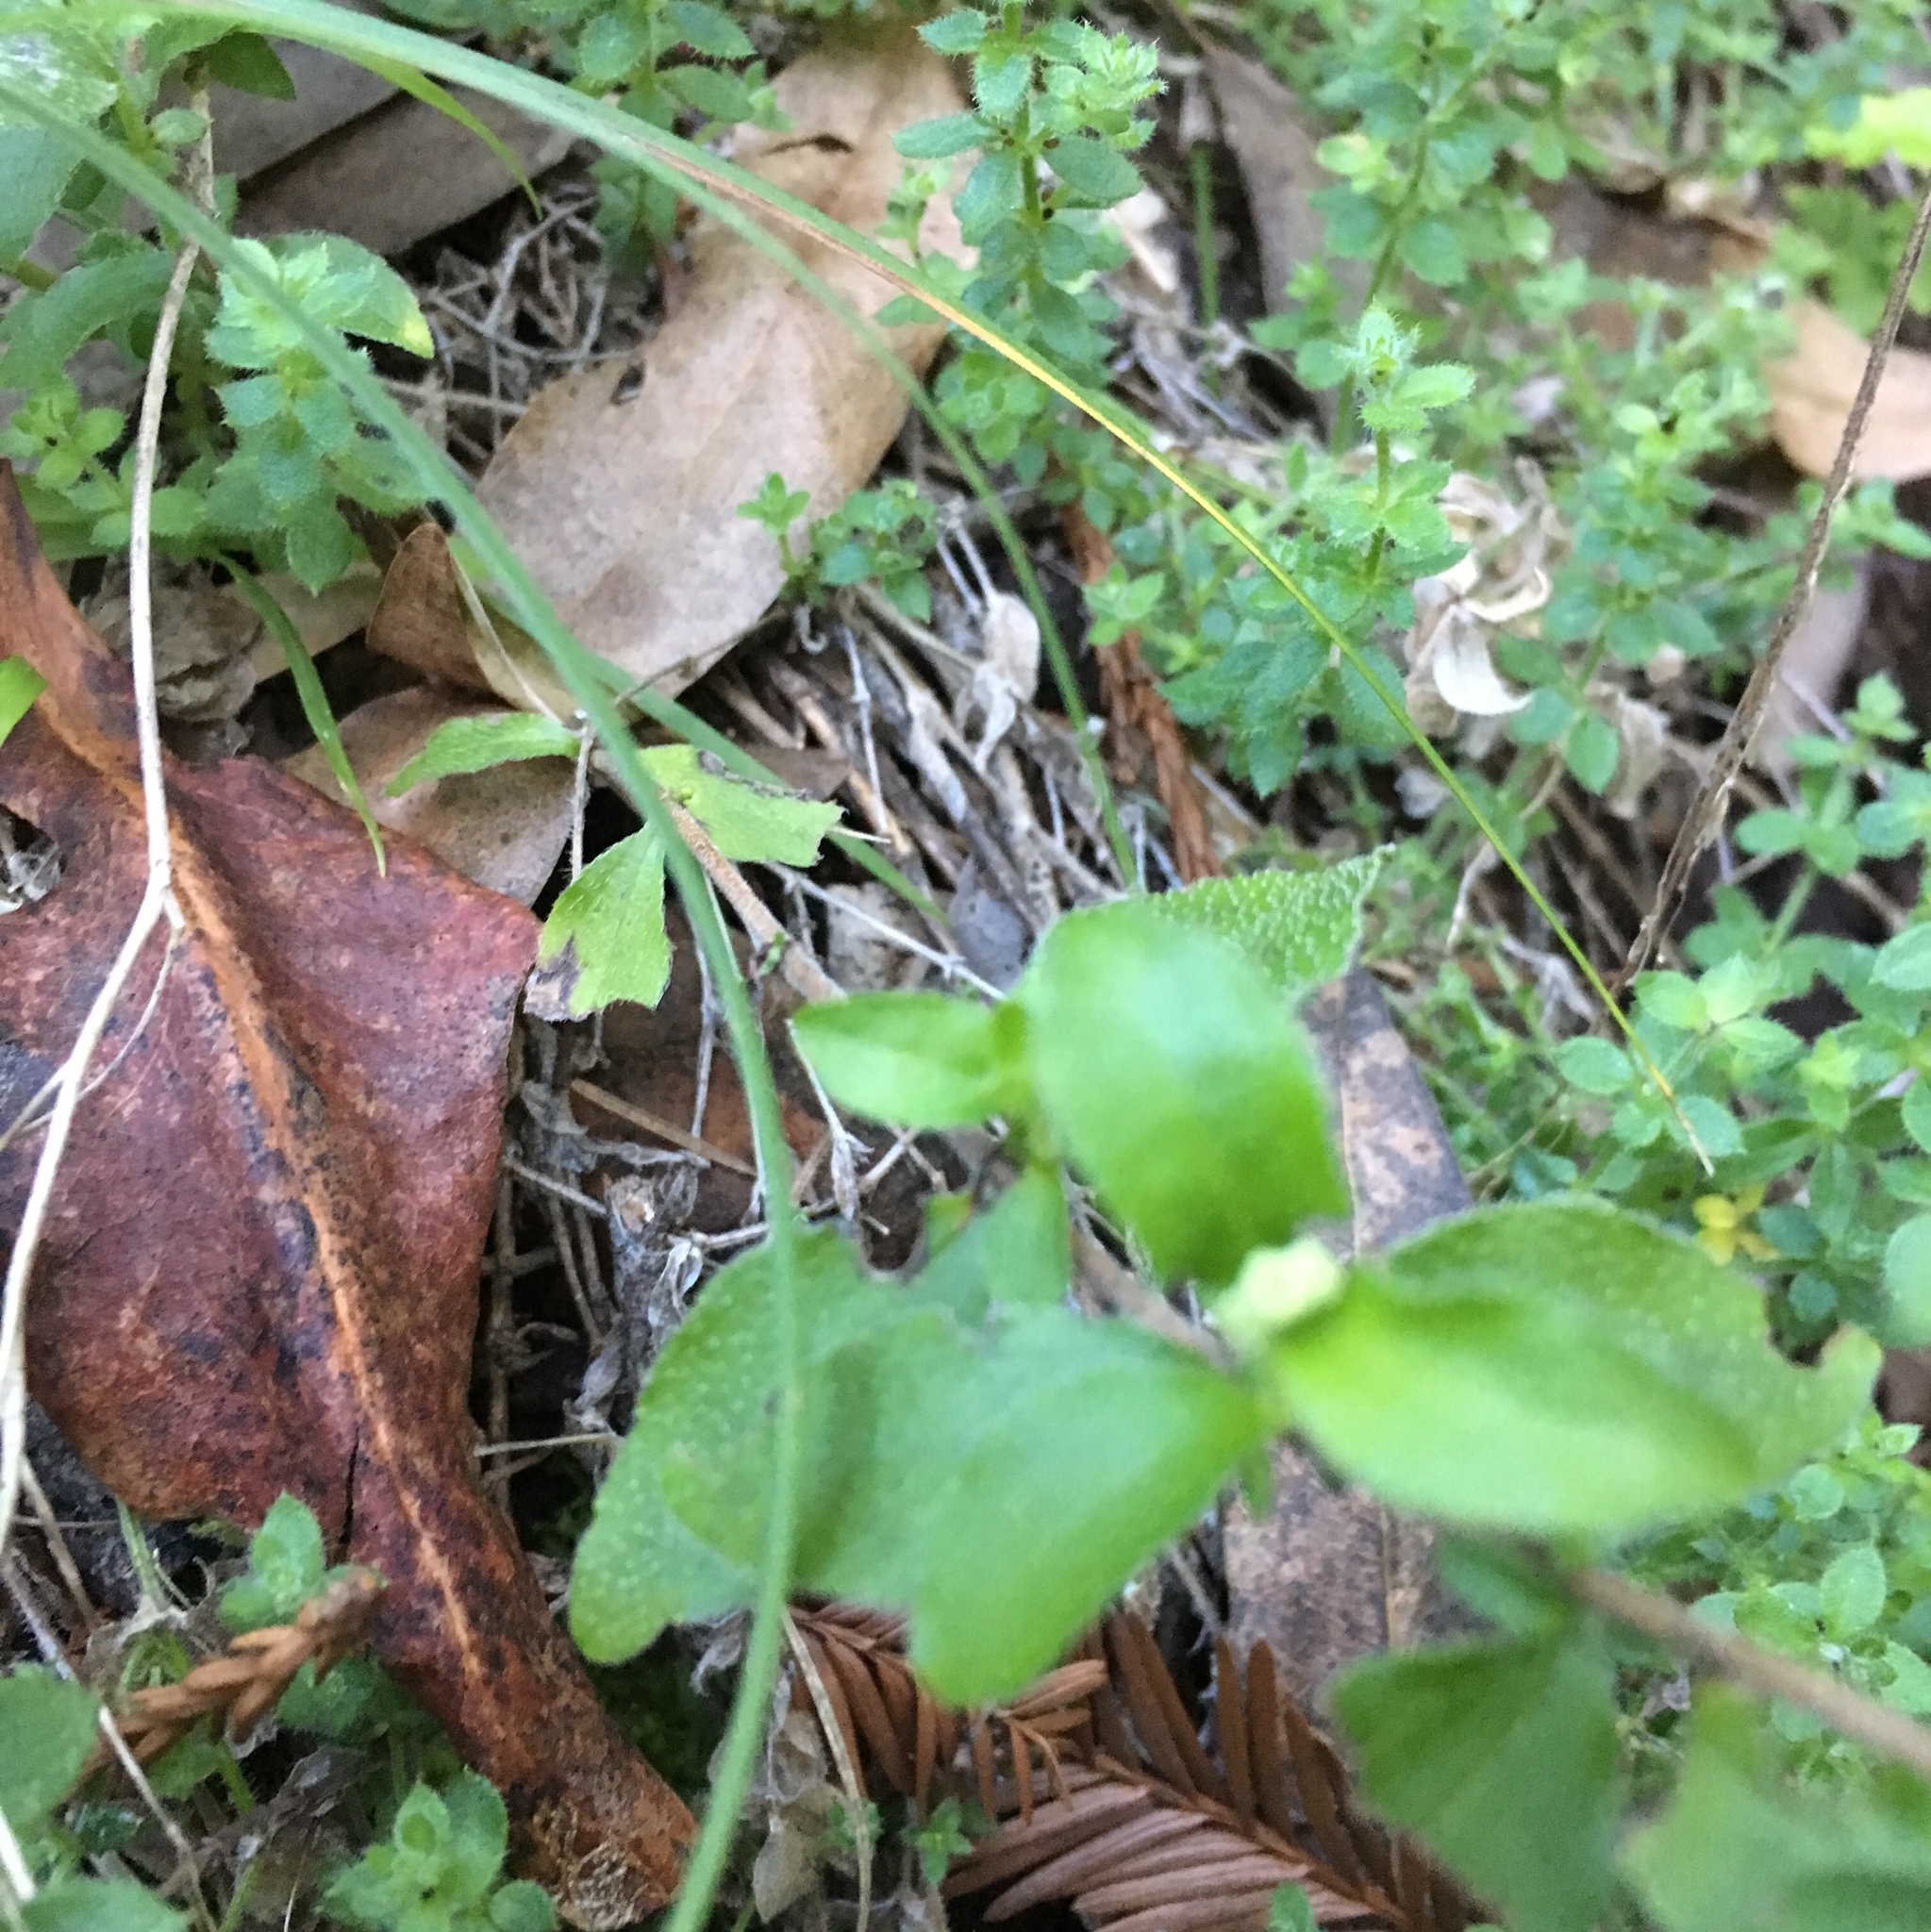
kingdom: Plantae
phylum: Tracheophyta
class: Magnoliopsida
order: Cornales
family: Hydrangeaceae
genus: Whipplea
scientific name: Whipplea modesta
